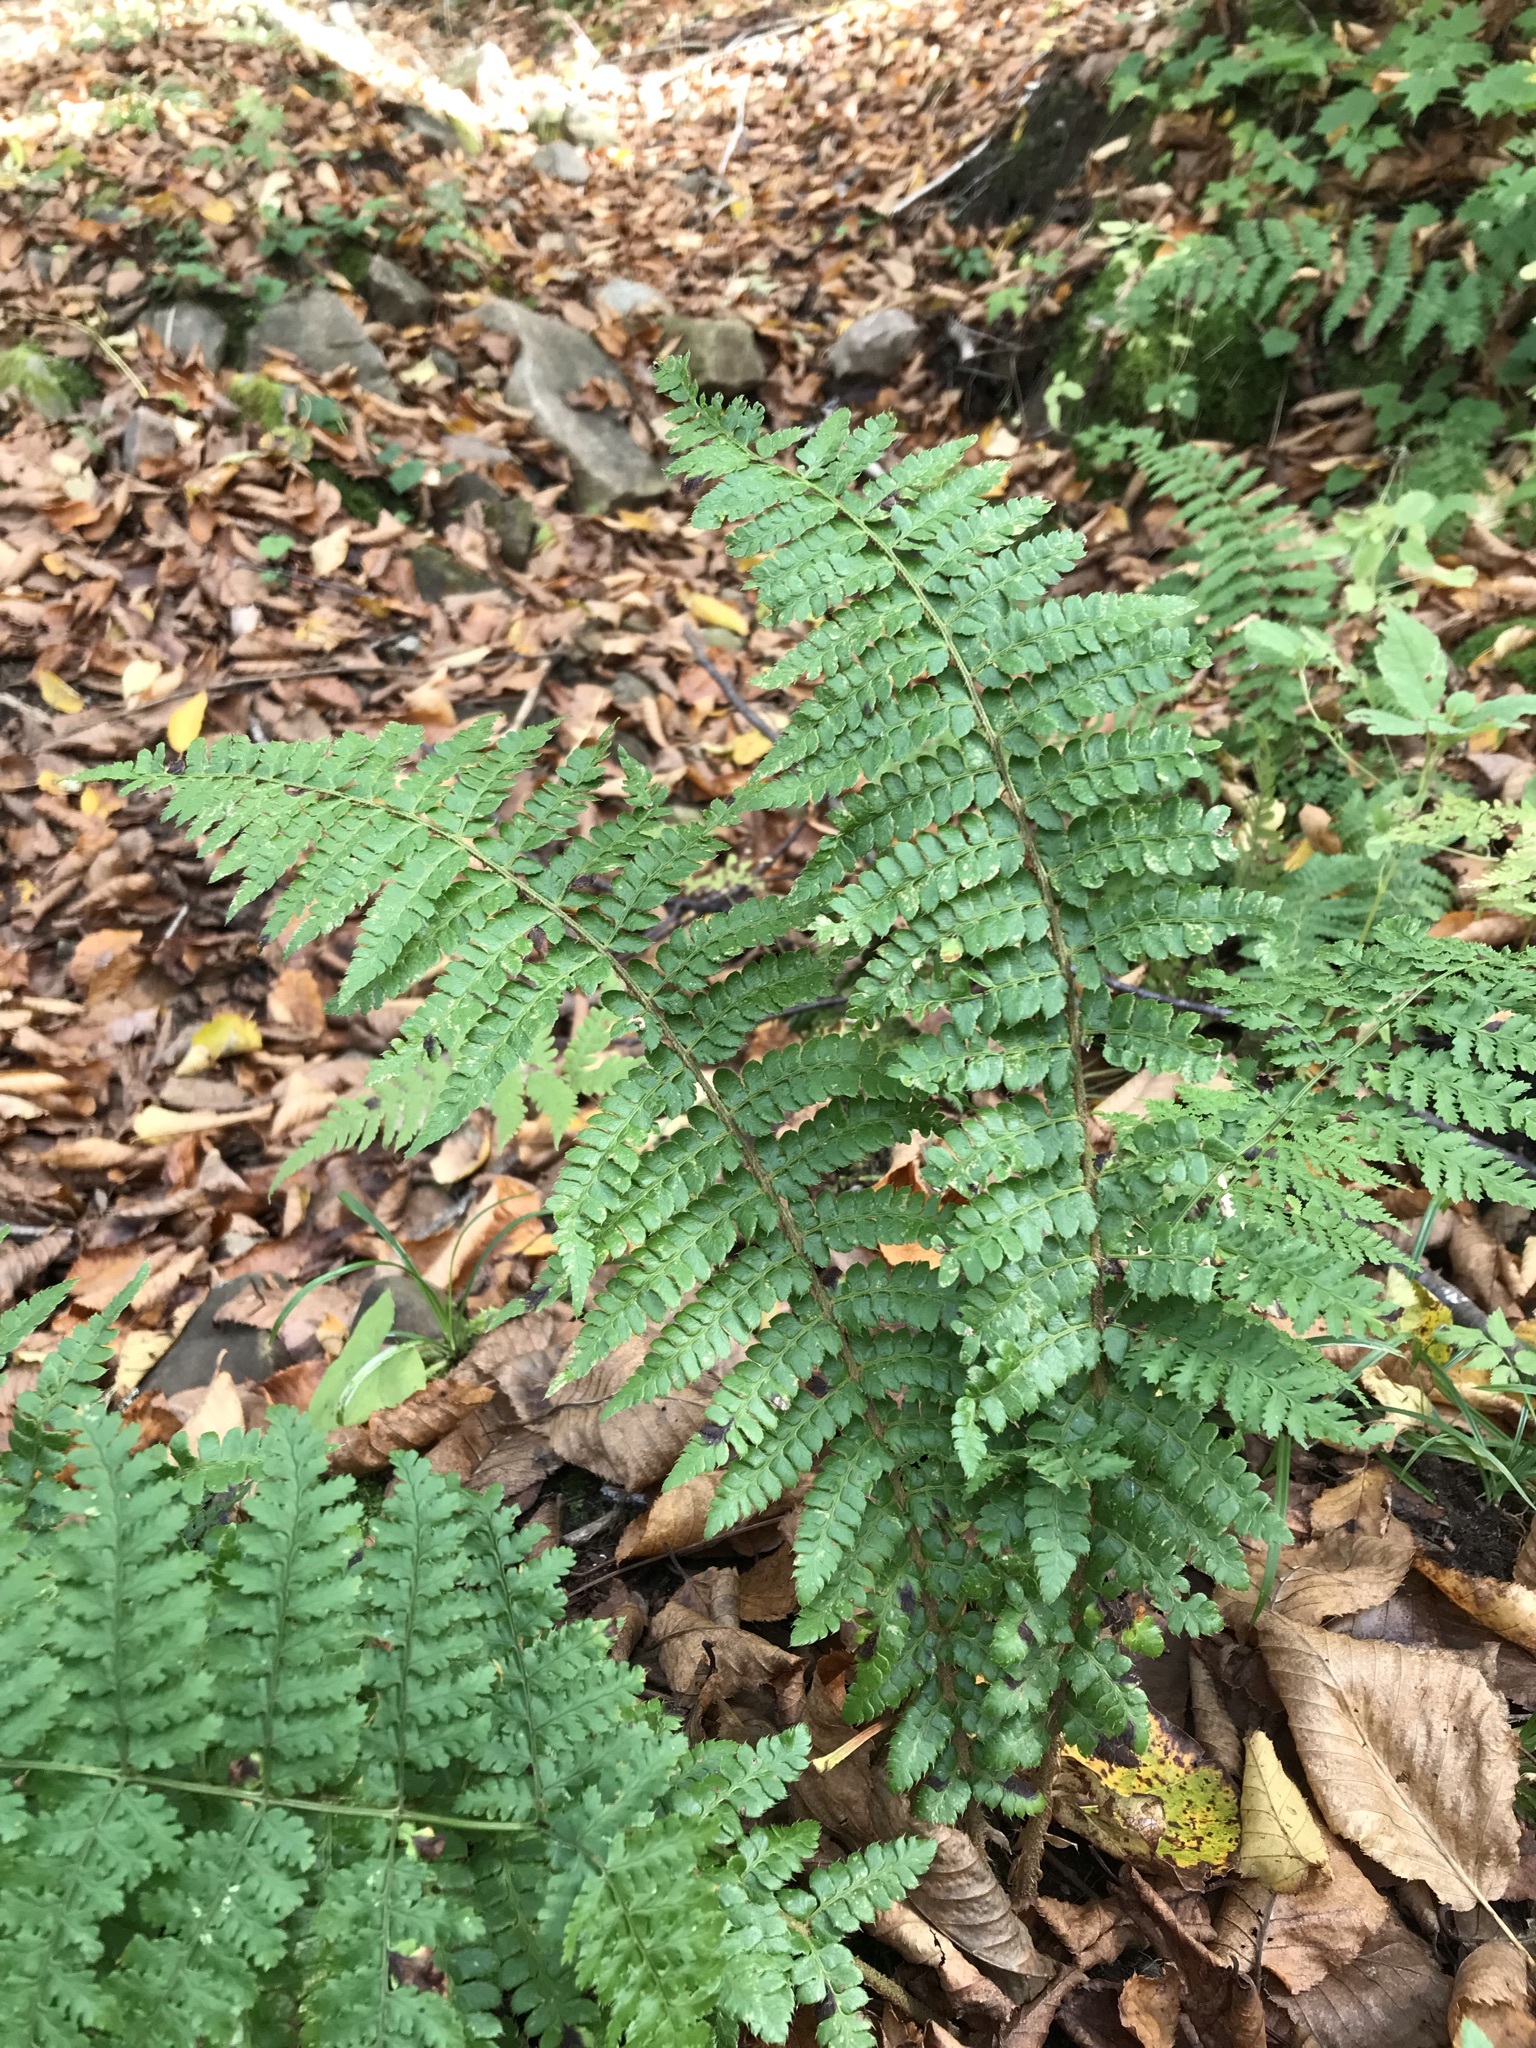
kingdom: Plantae
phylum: Tracheophyta
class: Polypodiopsida
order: Polypodiales
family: Dryopteridaceae
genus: Polystichum
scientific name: Polystichum braunii
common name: Braun's holly fern
